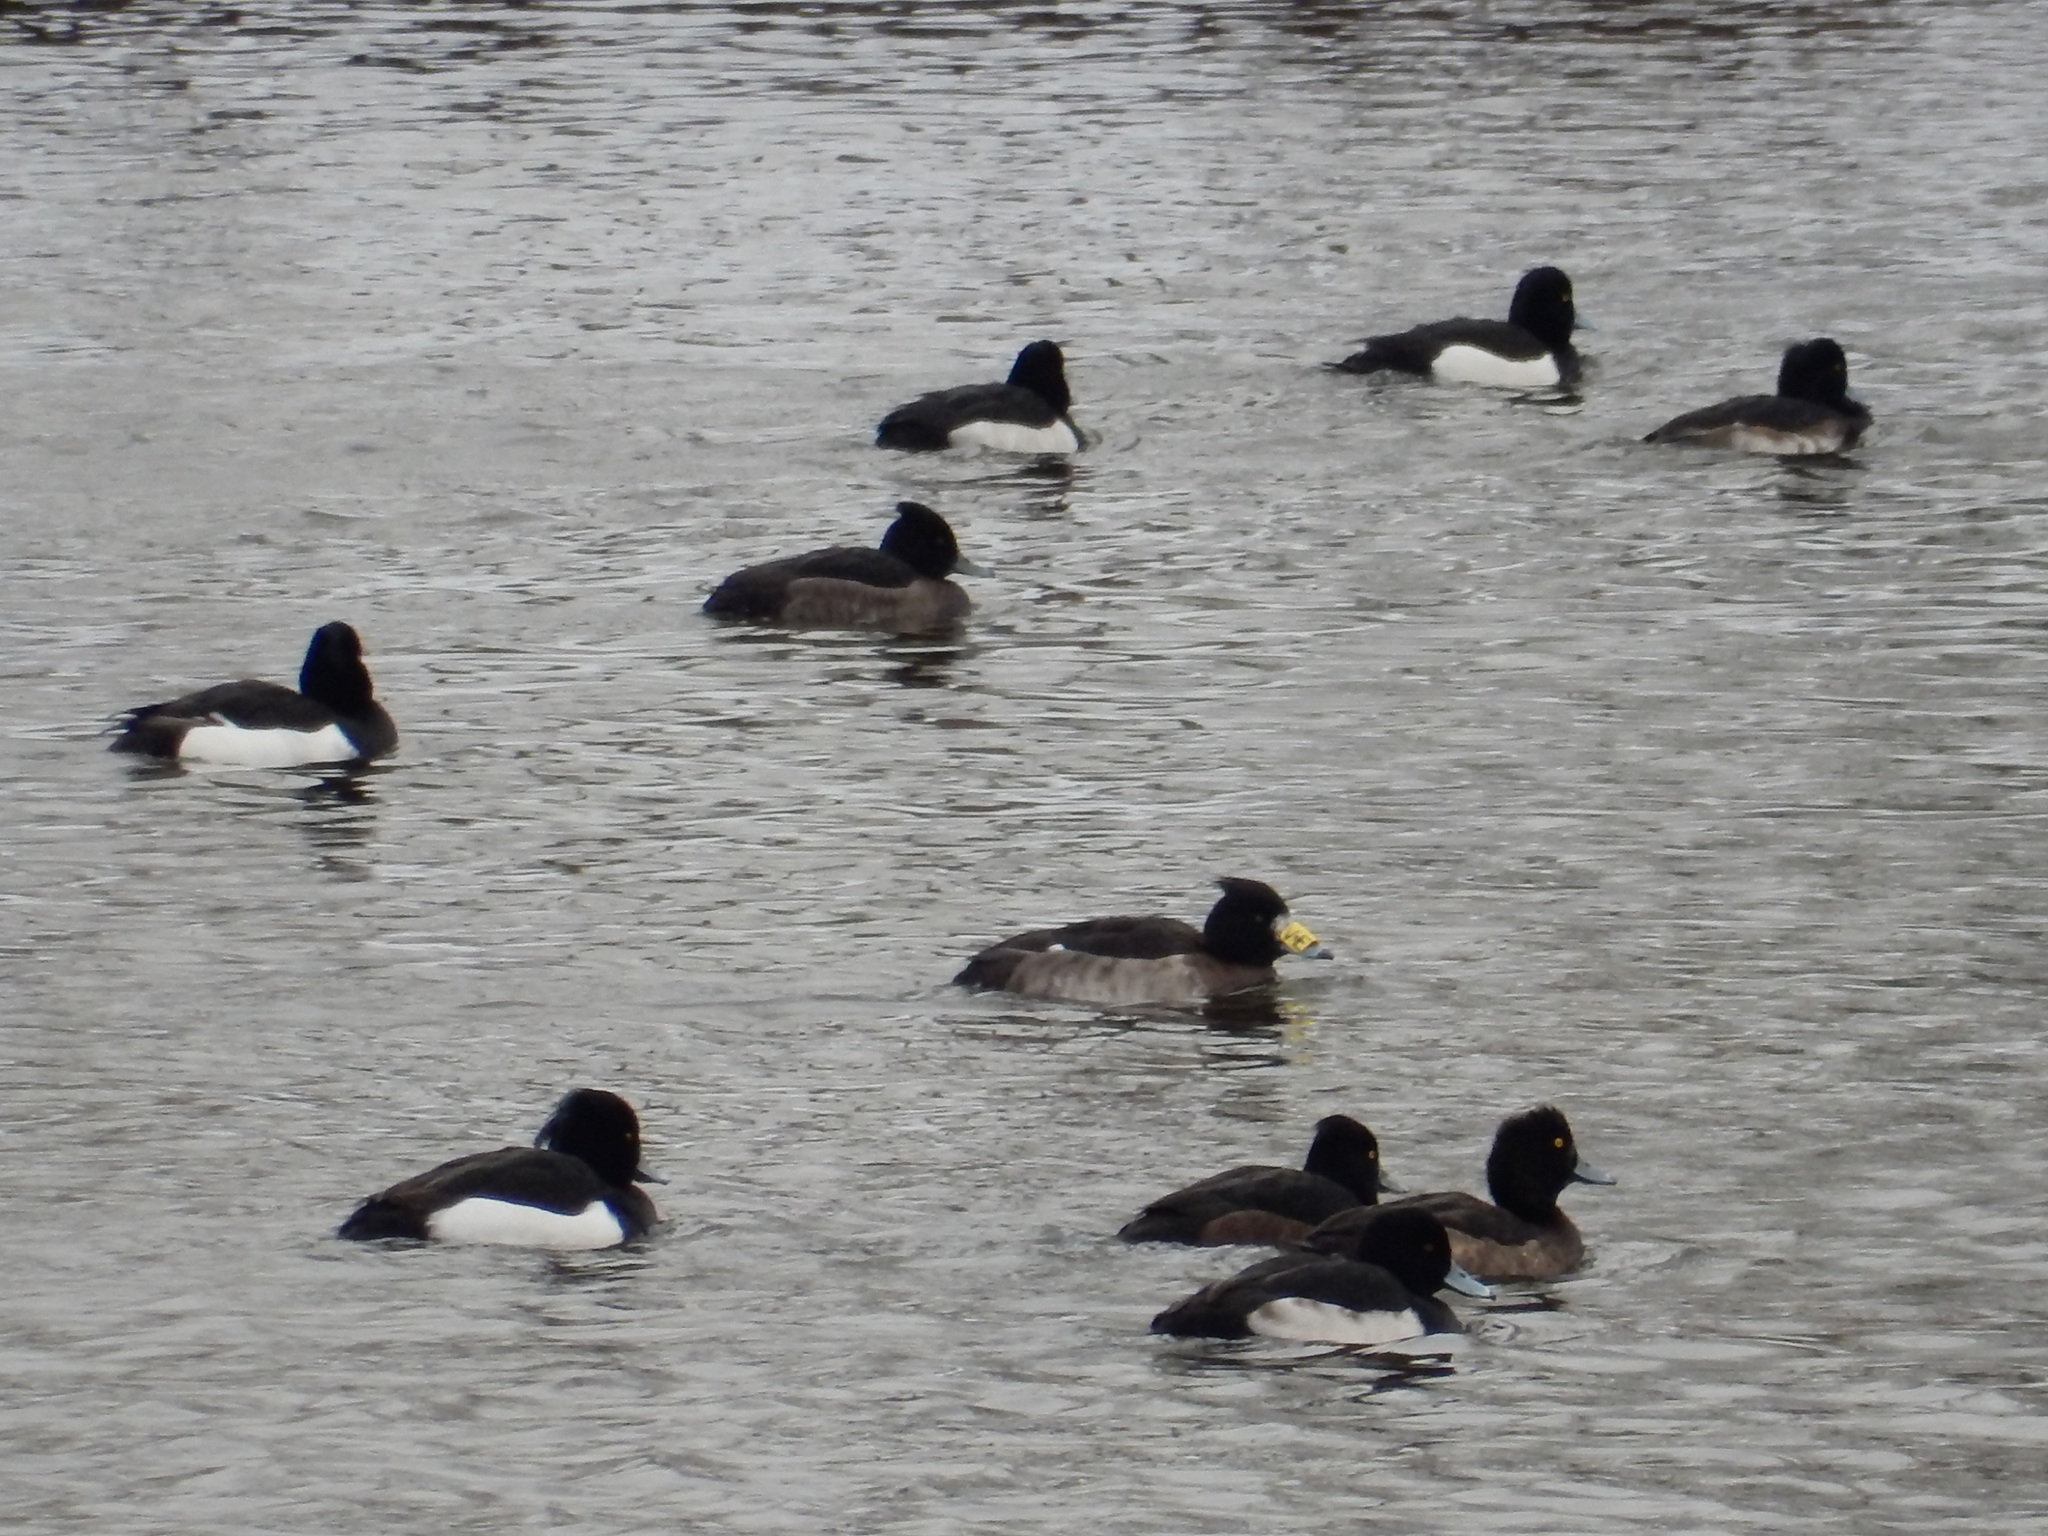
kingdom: Animalia
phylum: Chordata
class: Aves
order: Anseriformes
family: Anatidae
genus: Aythya
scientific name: Aythya fuligula
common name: Tufted duck
